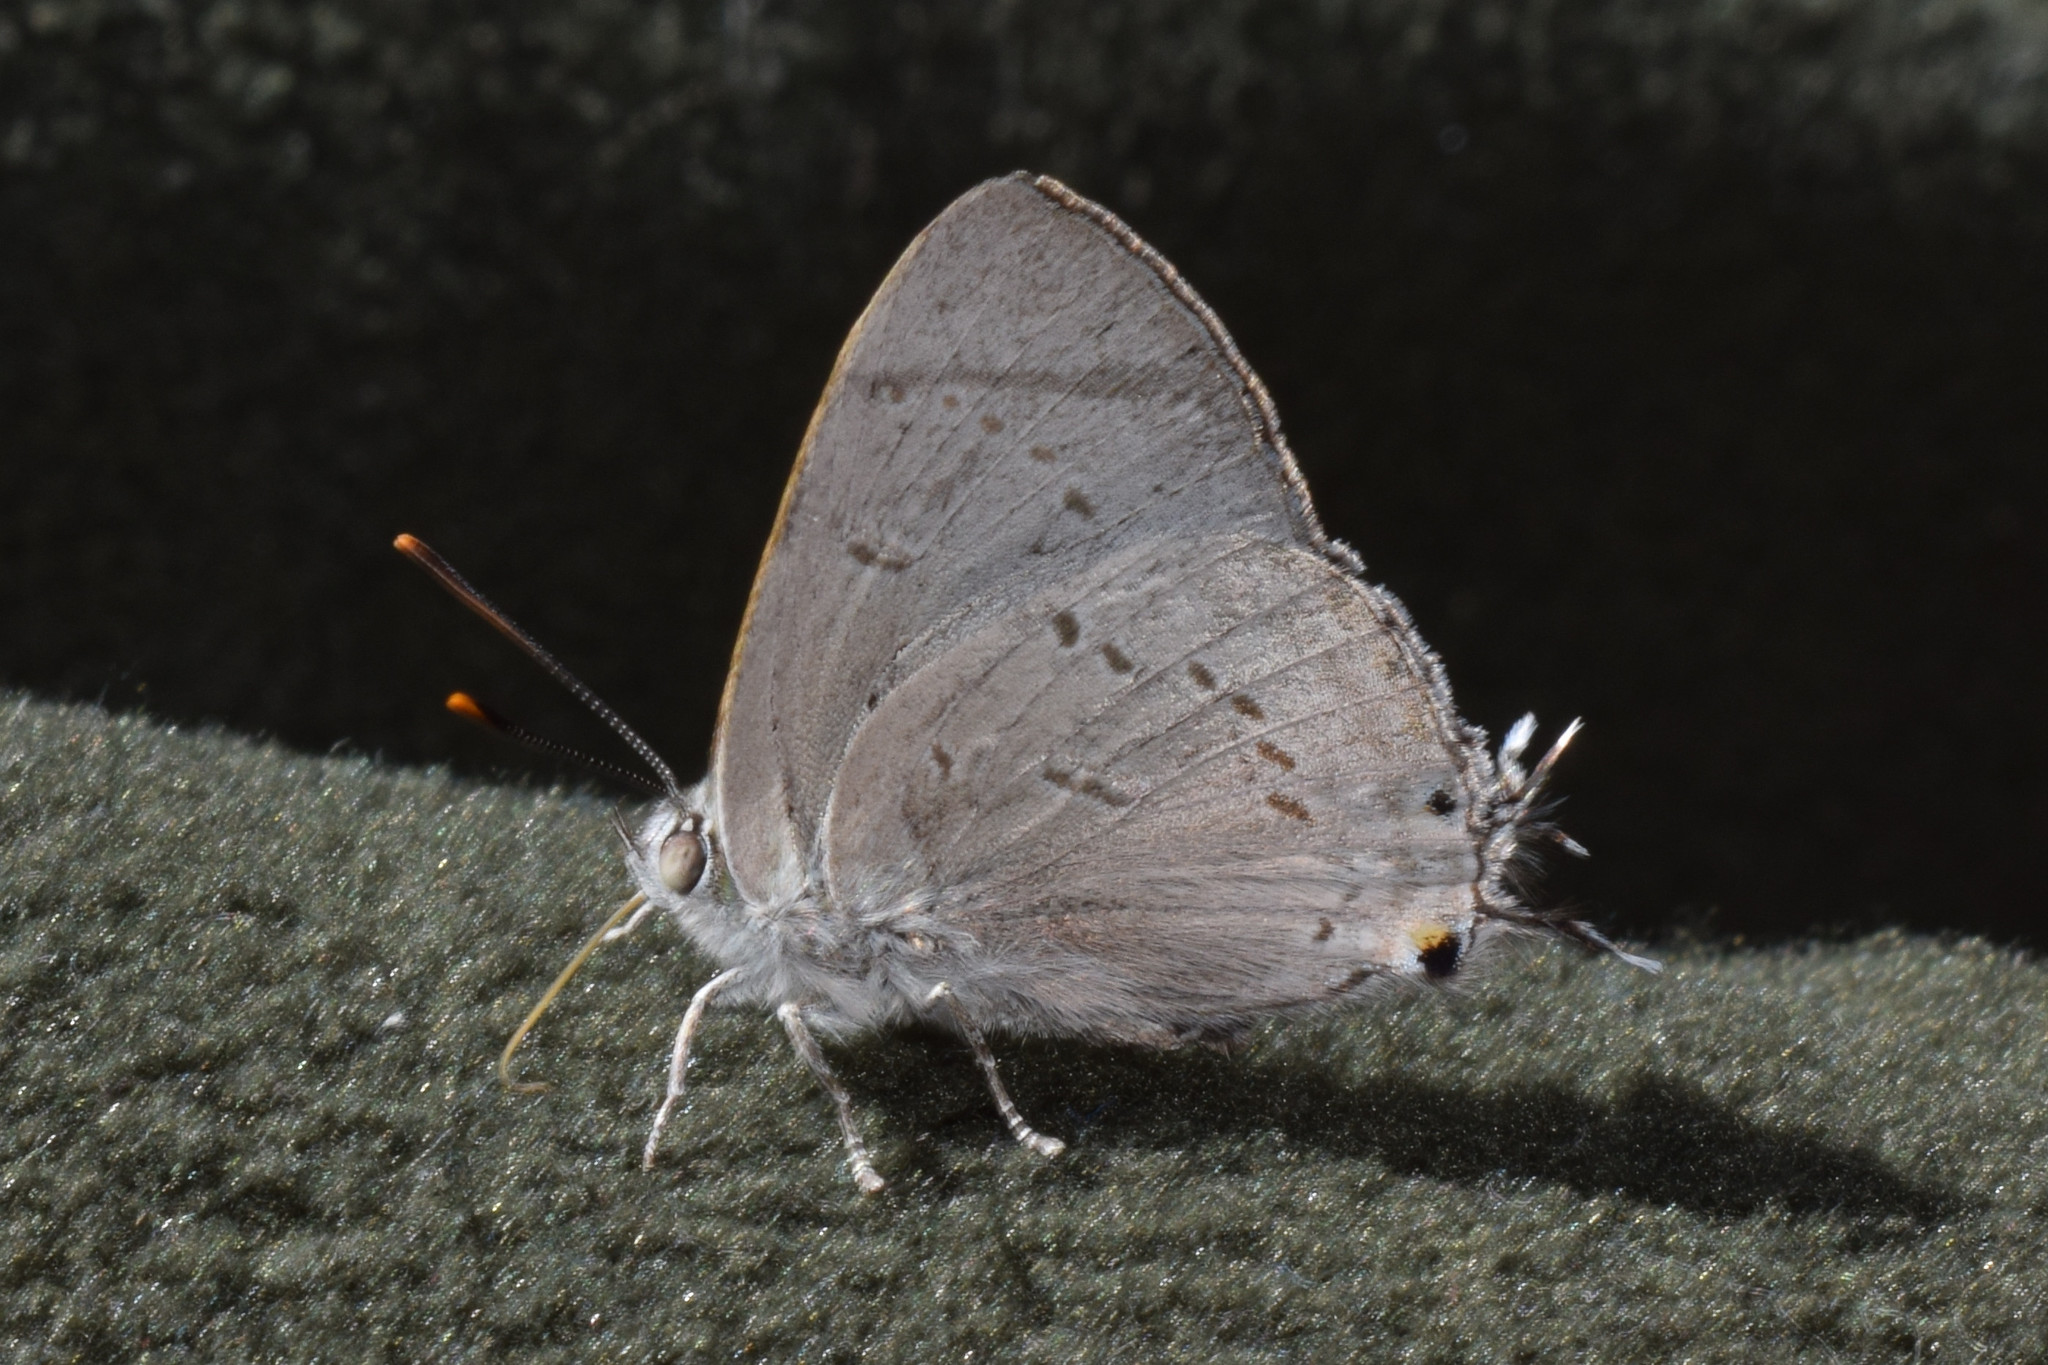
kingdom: Animalia
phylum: Arthropoda
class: Insecta
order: Lepidoptera
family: Lycaenidae
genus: Ancema
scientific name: Ancema ctesia
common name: Bi-spot royal
